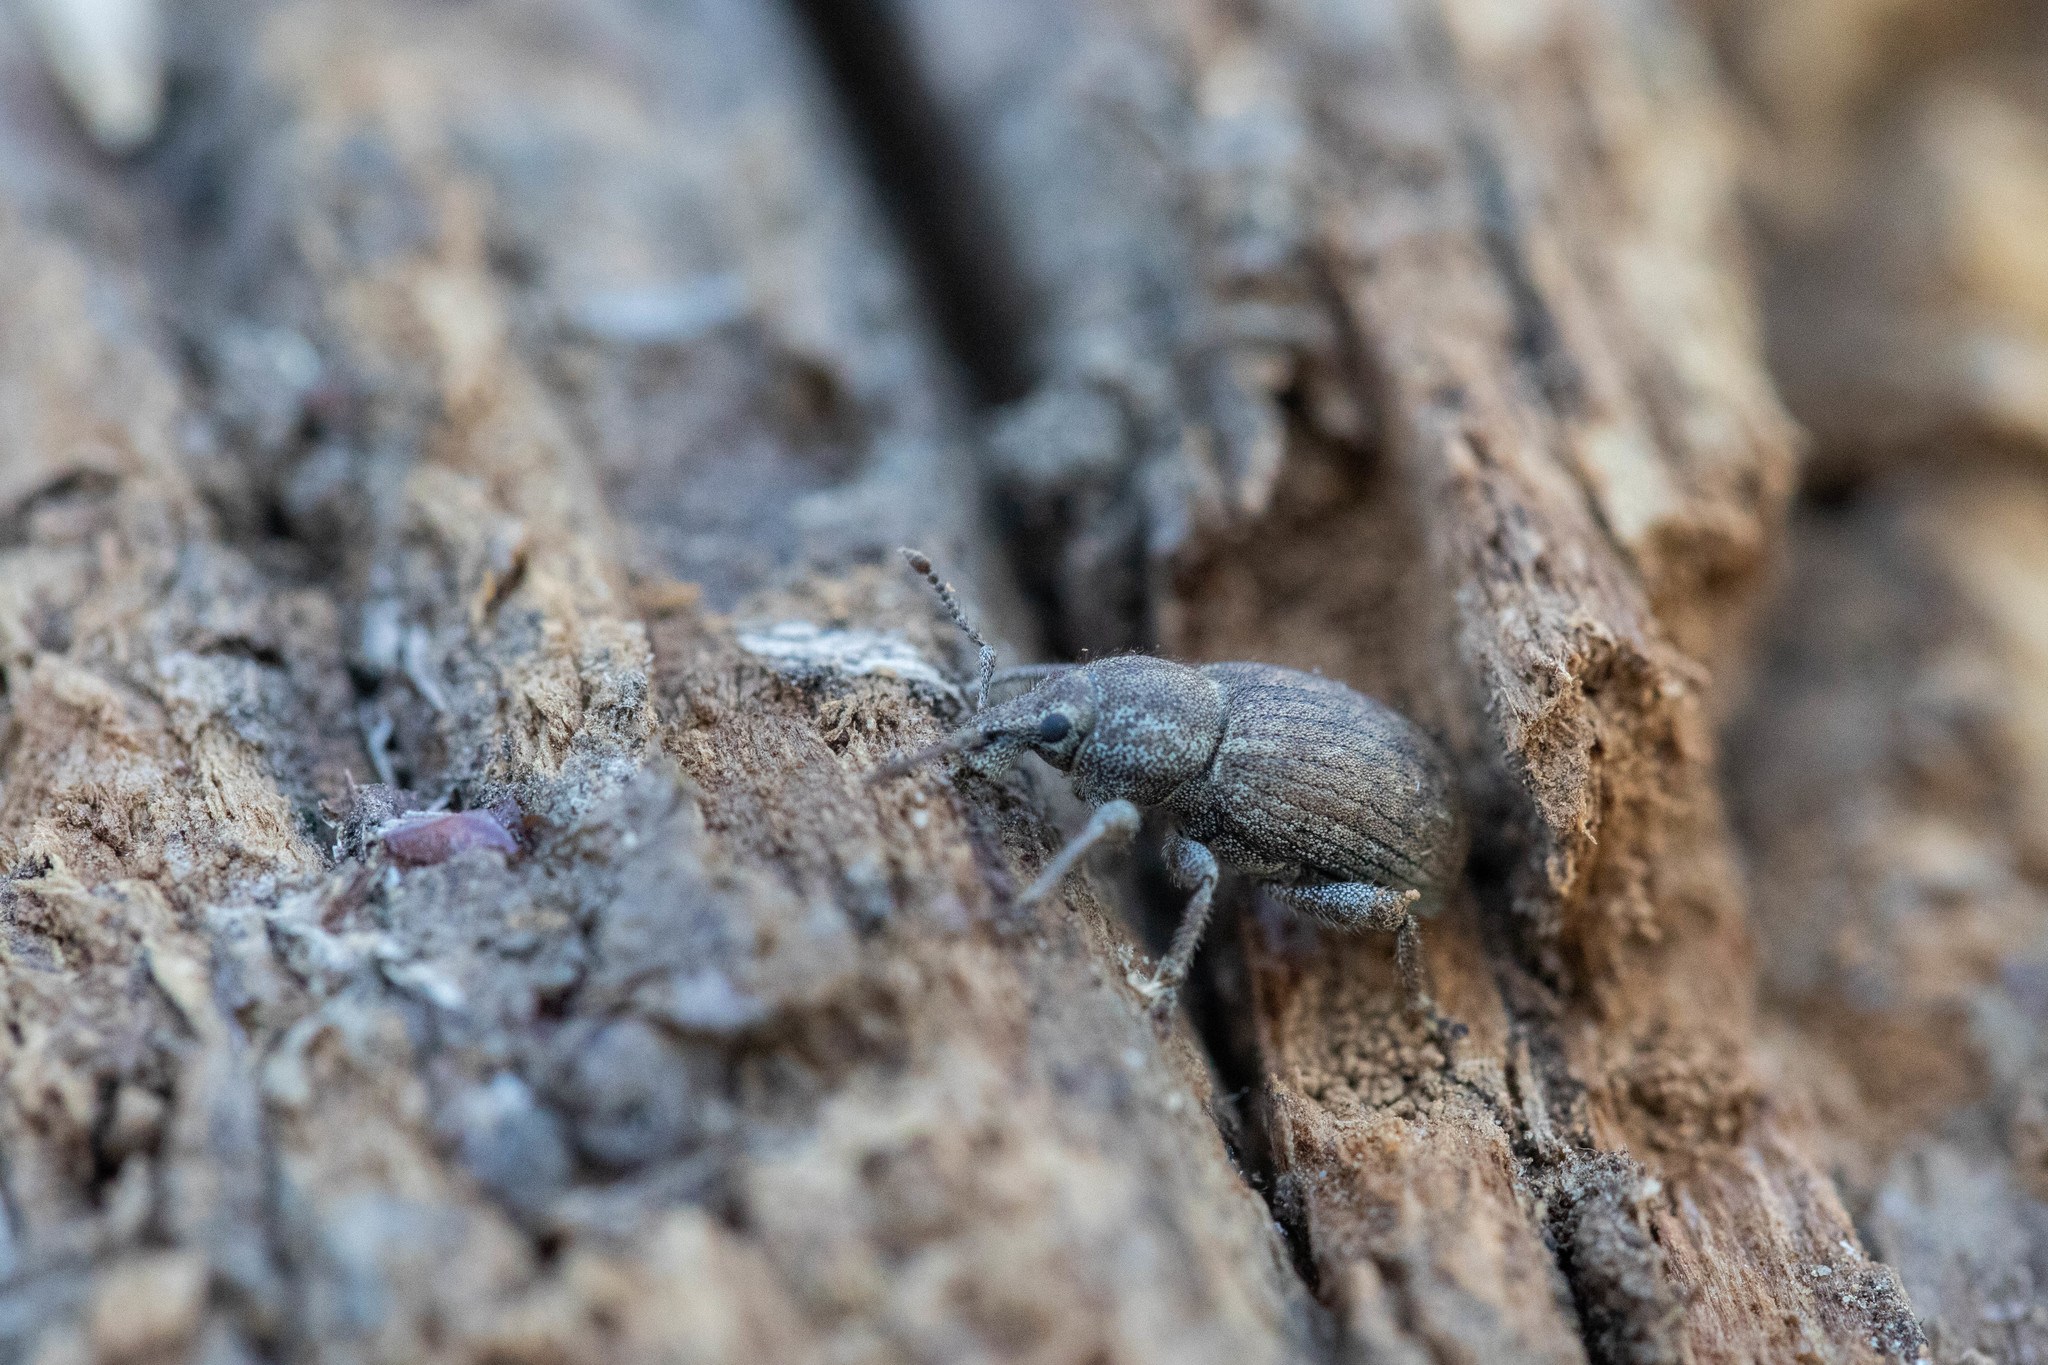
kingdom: Animalia
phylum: Arthropoda
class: Insecta
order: Coleoptera
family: Curculionidae
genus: Dyslobus
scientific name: Dyslobus alternatus
